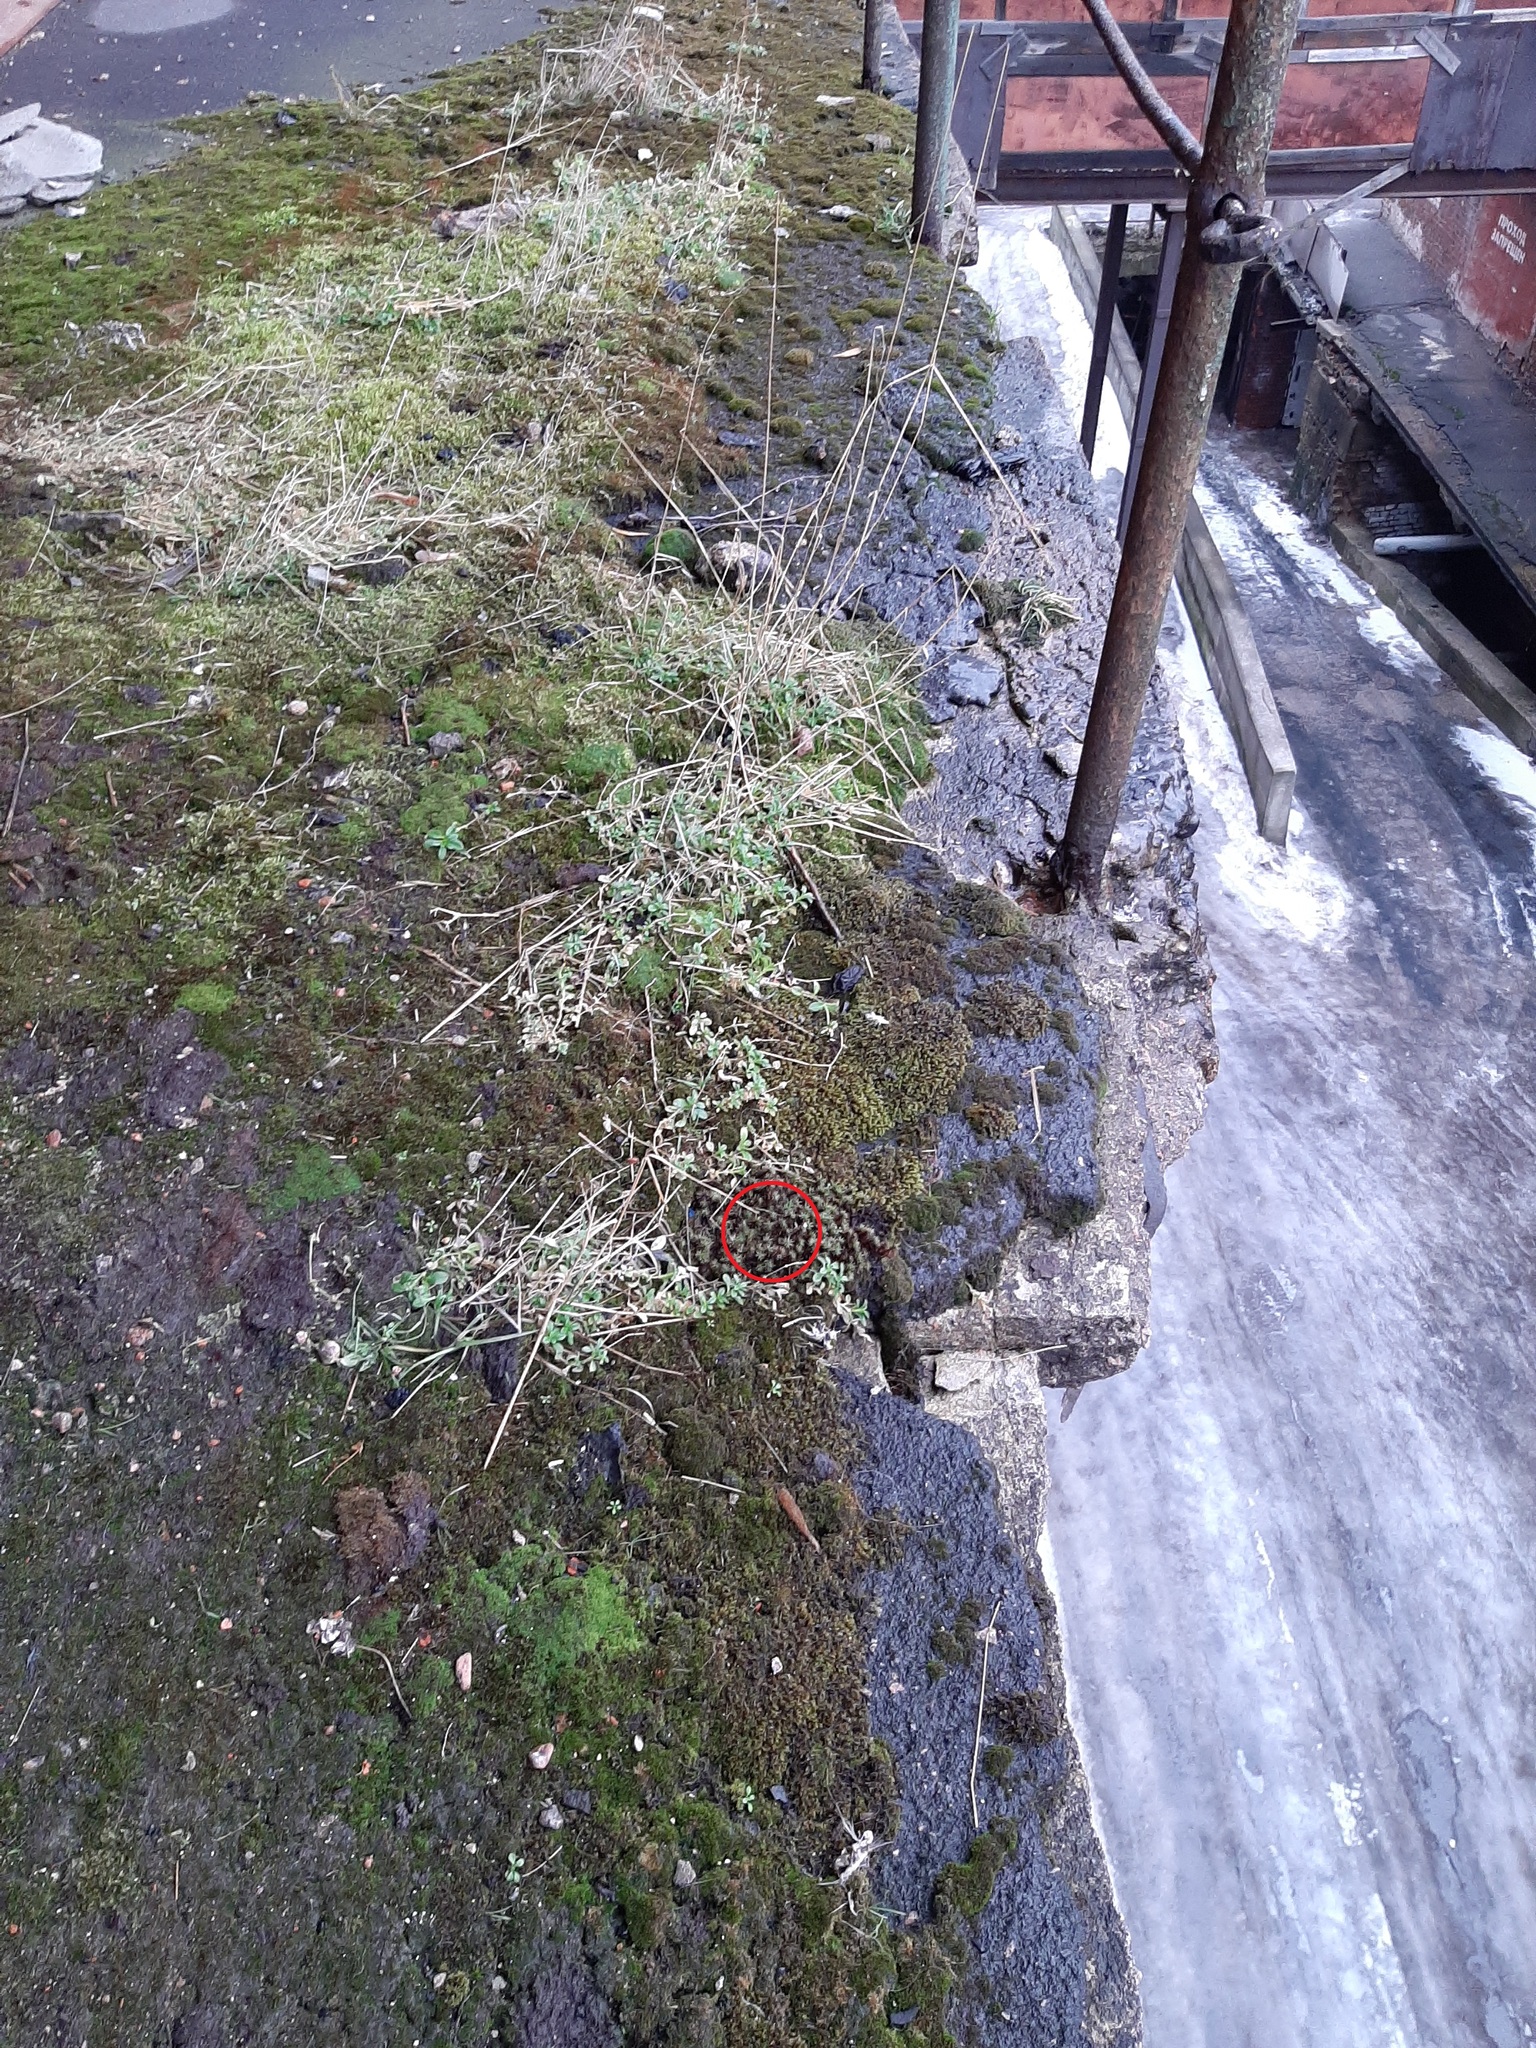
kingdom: Chromista
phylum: Ochrophyta
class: Bacillariophyceae
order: Naviculales
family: Pinnulariaceae
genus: Pinnularia
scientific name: Pinnularia borealis
